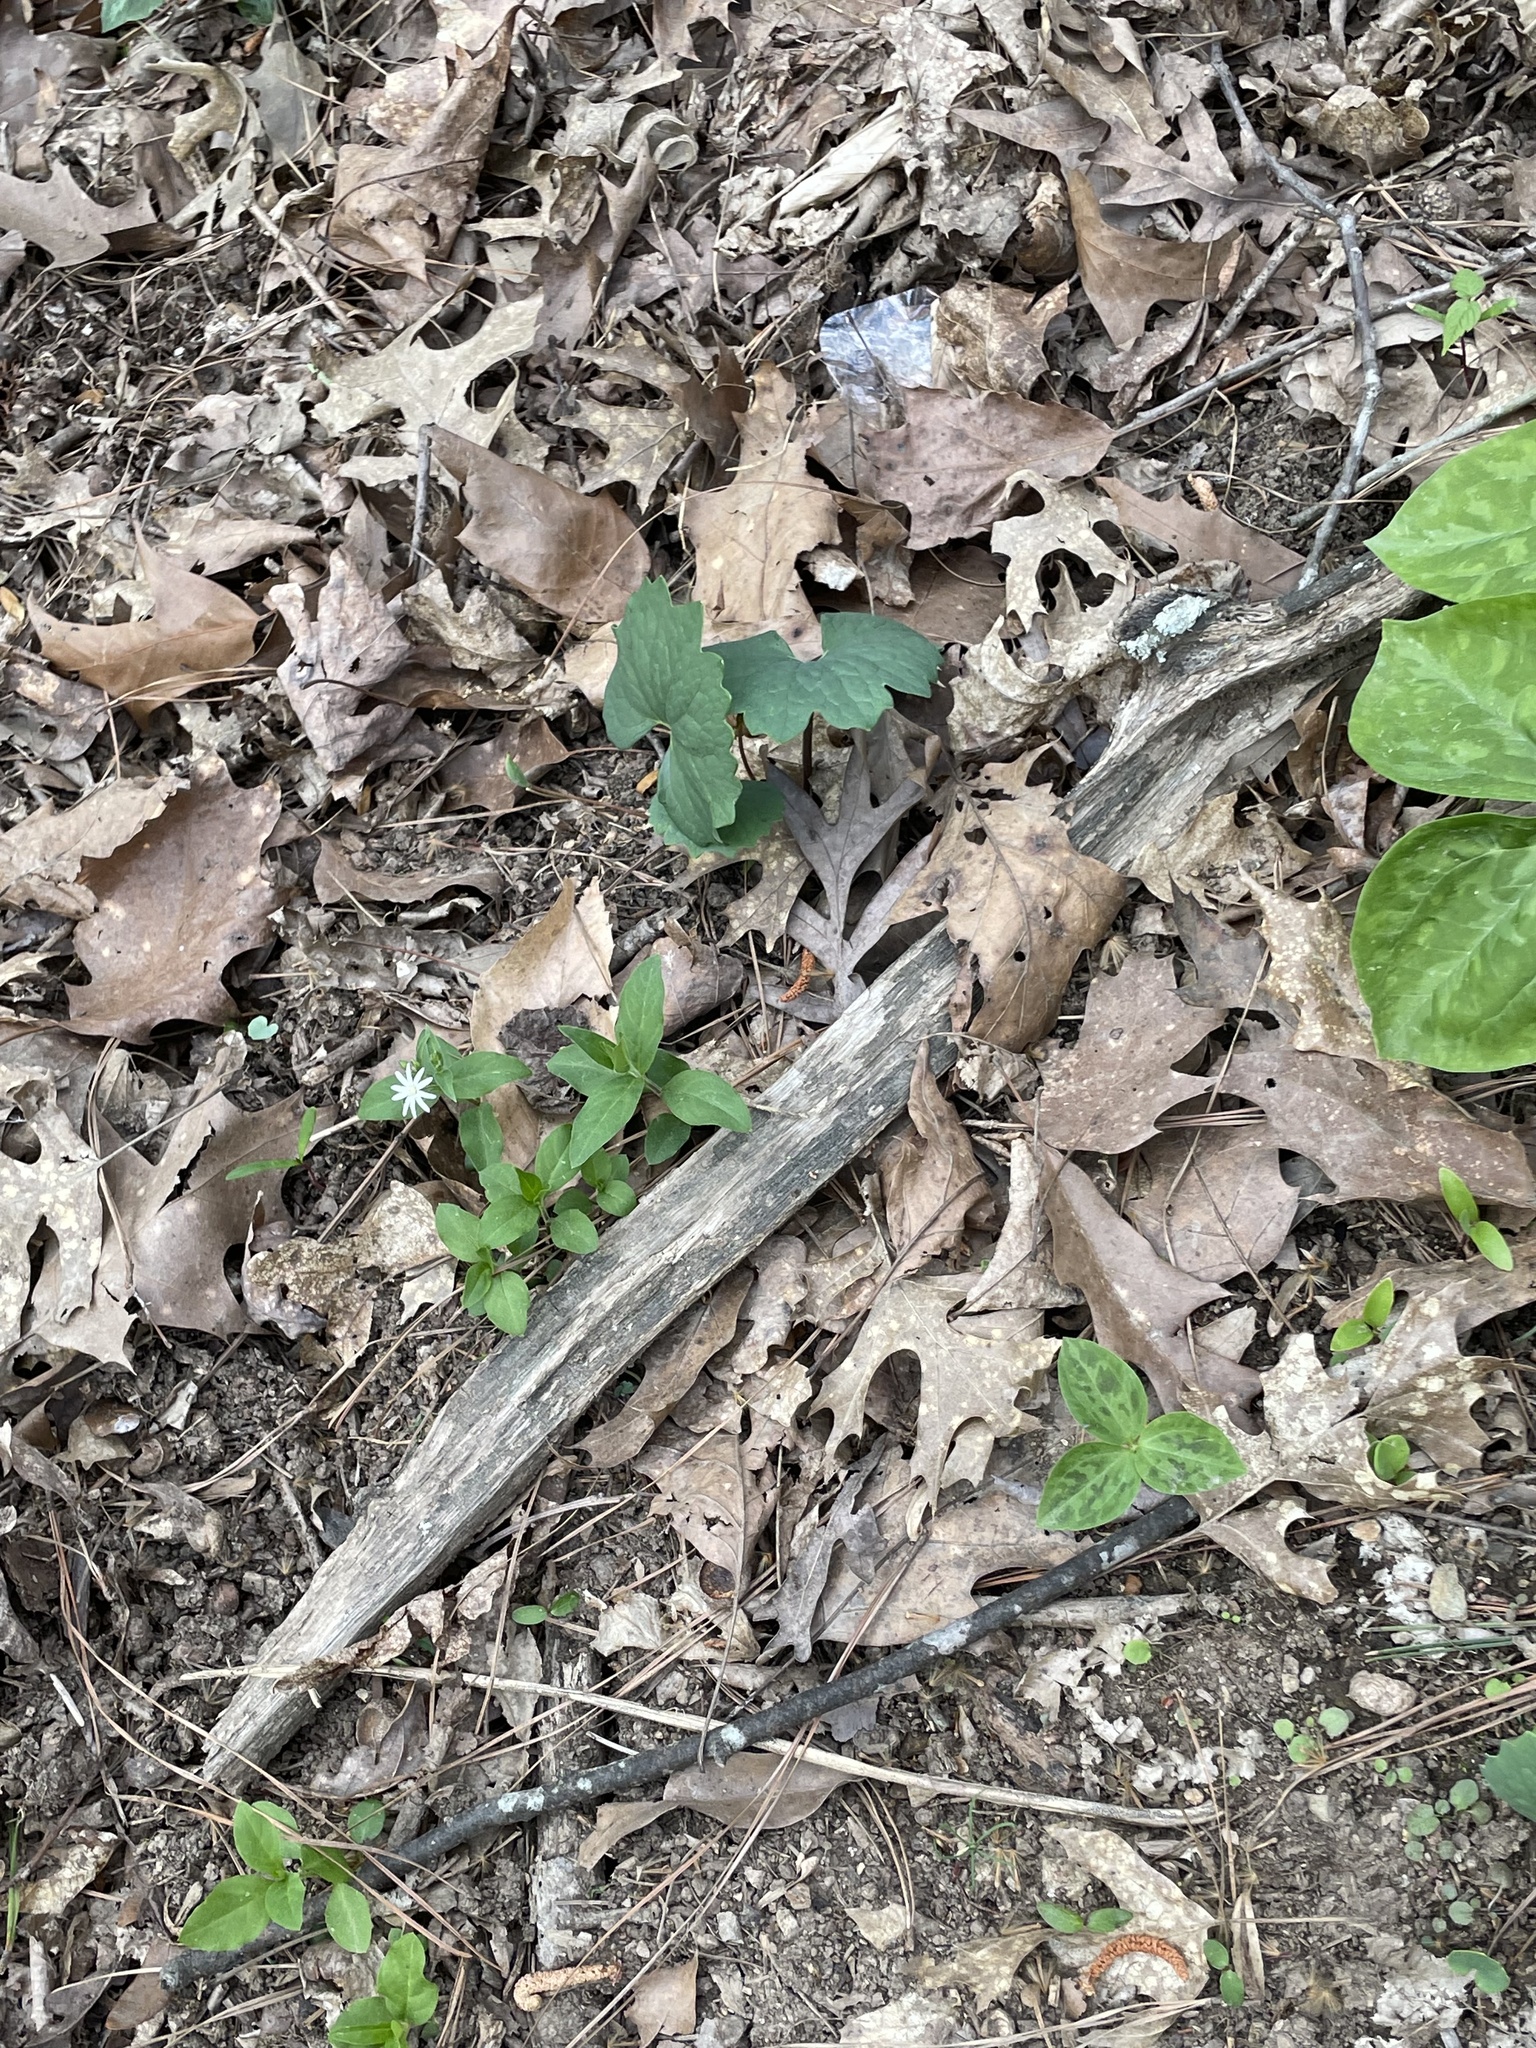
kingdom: Plantae
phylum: Tracheophyta
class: Magnoliopsida
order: Ranunculales
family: Papaveraceae
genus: Sanguinaria
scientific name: Sanguinaria canadensis
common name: Bloodroot
